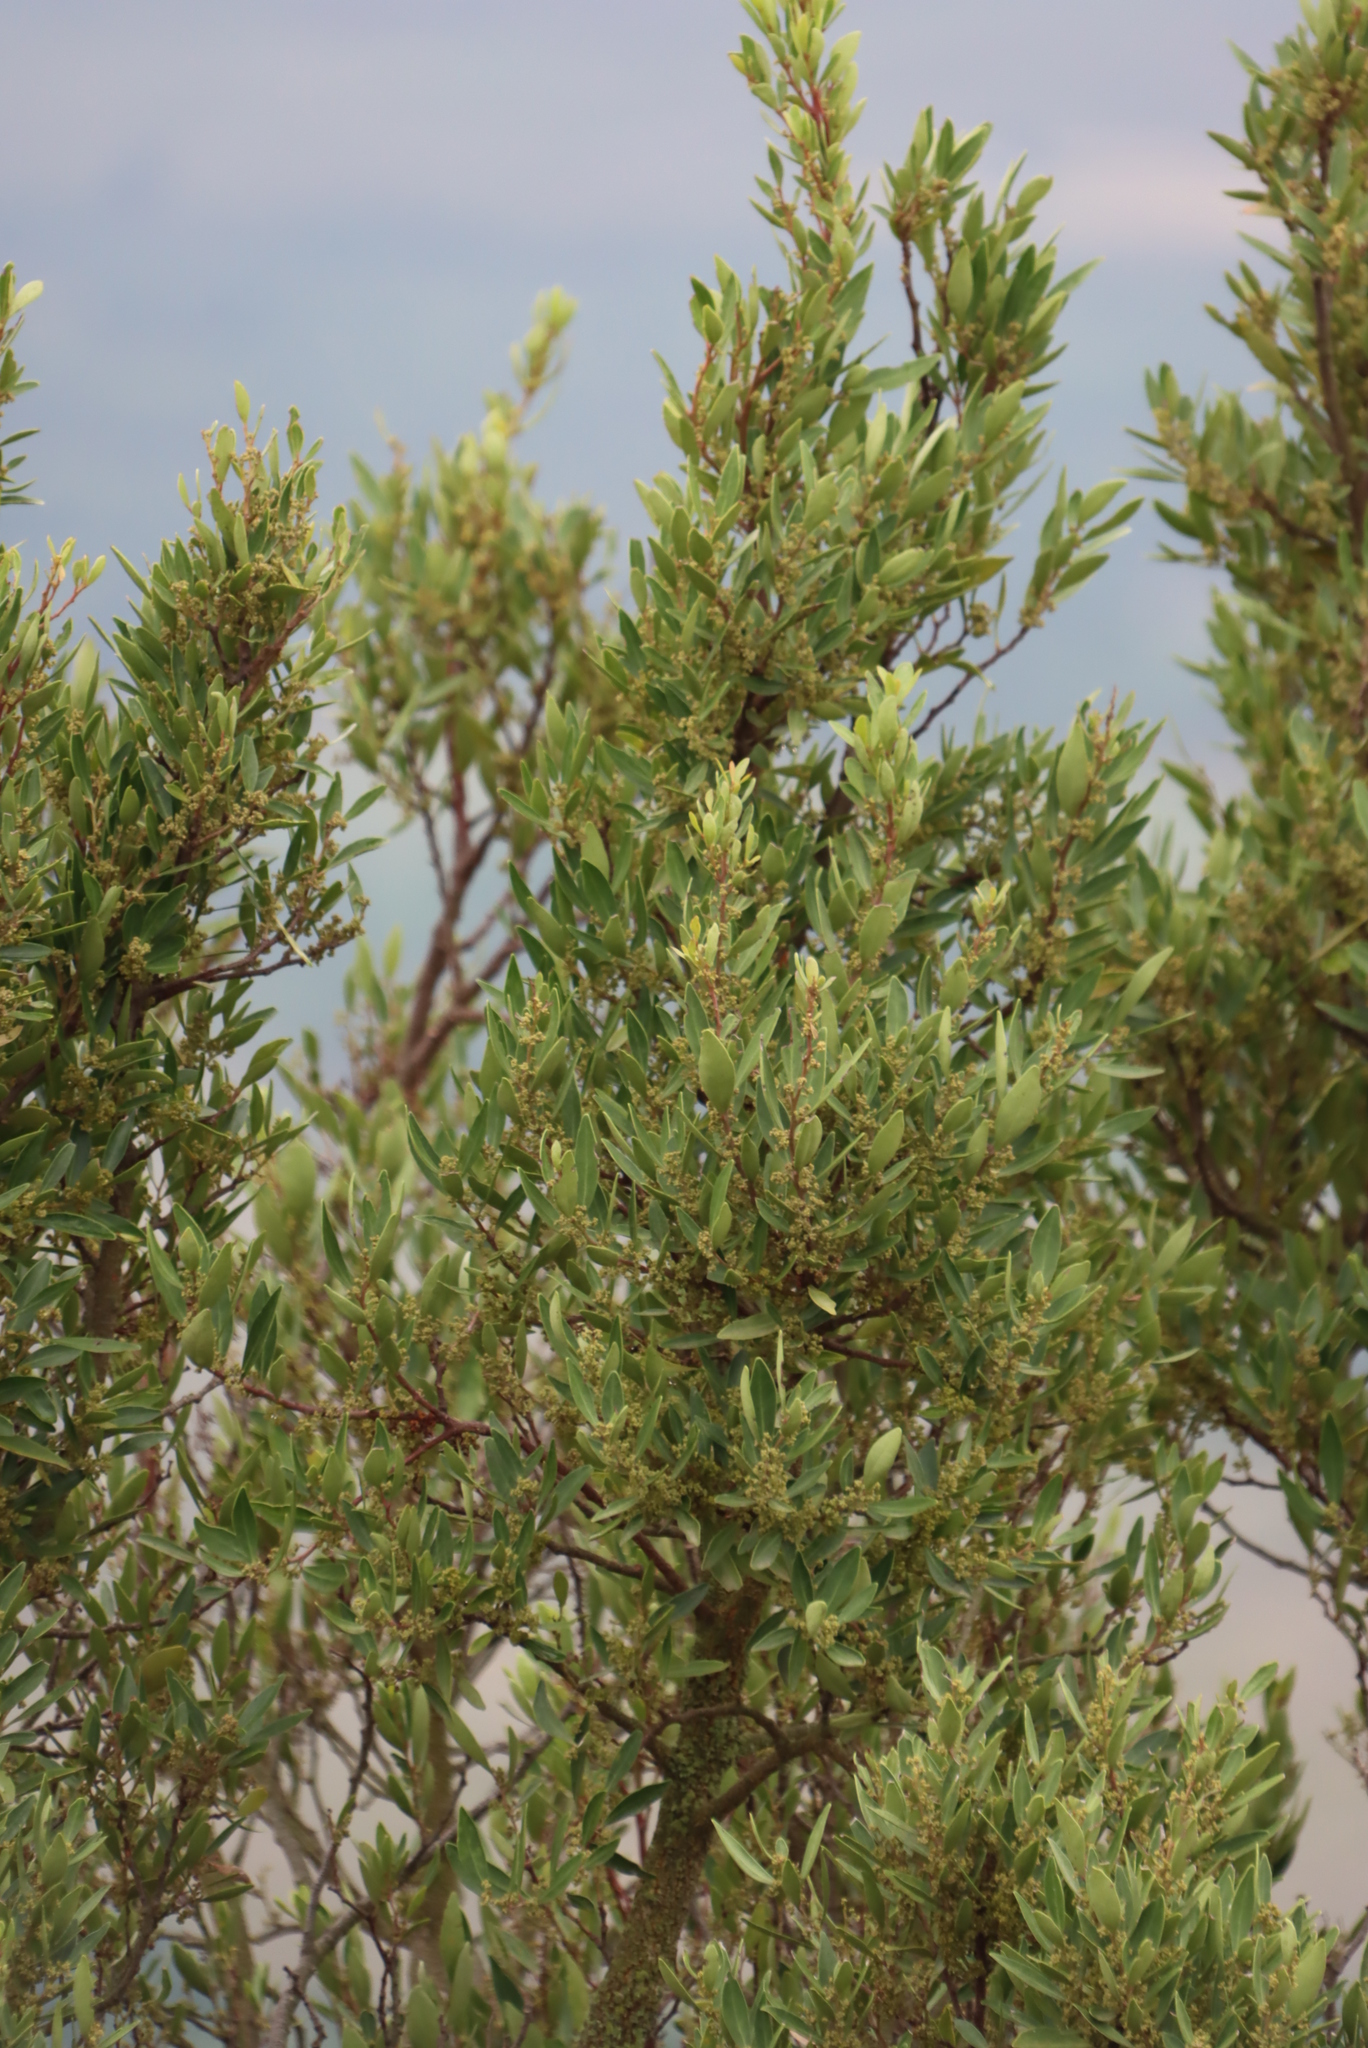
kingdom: Plantae
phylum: Tracheophyta
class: Magnoliopsida
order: Lamiales
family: Oleaceae
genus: Olea
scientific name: Olea europaea
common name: Olive
